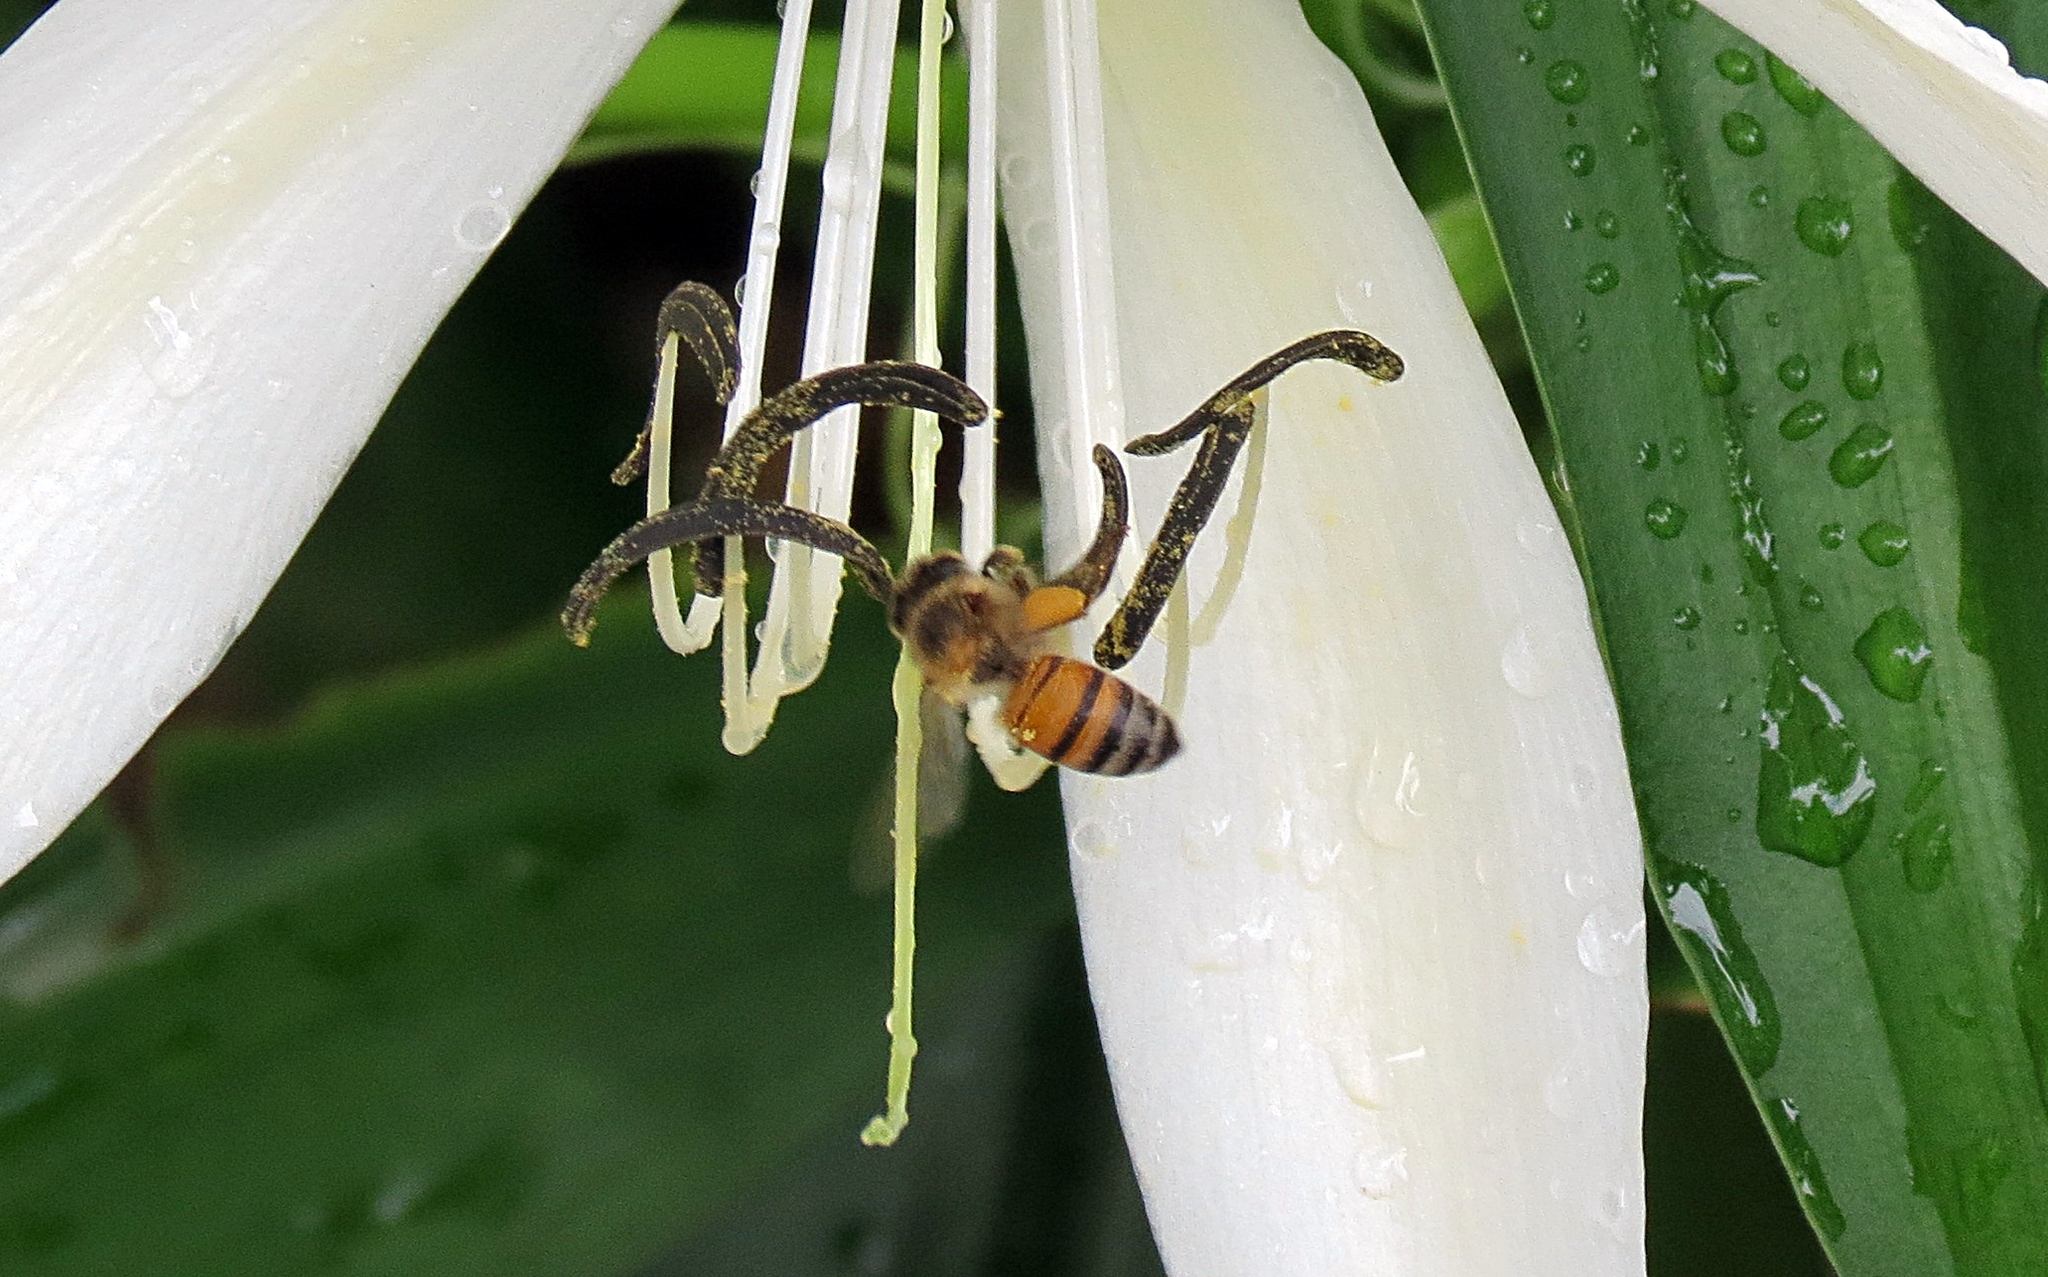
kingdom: Animalia
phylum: Arthropoda
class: Insecta
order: Hymenoptera
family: Apidae
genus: Apis
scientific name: Apis mellifera
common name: Honey bee
